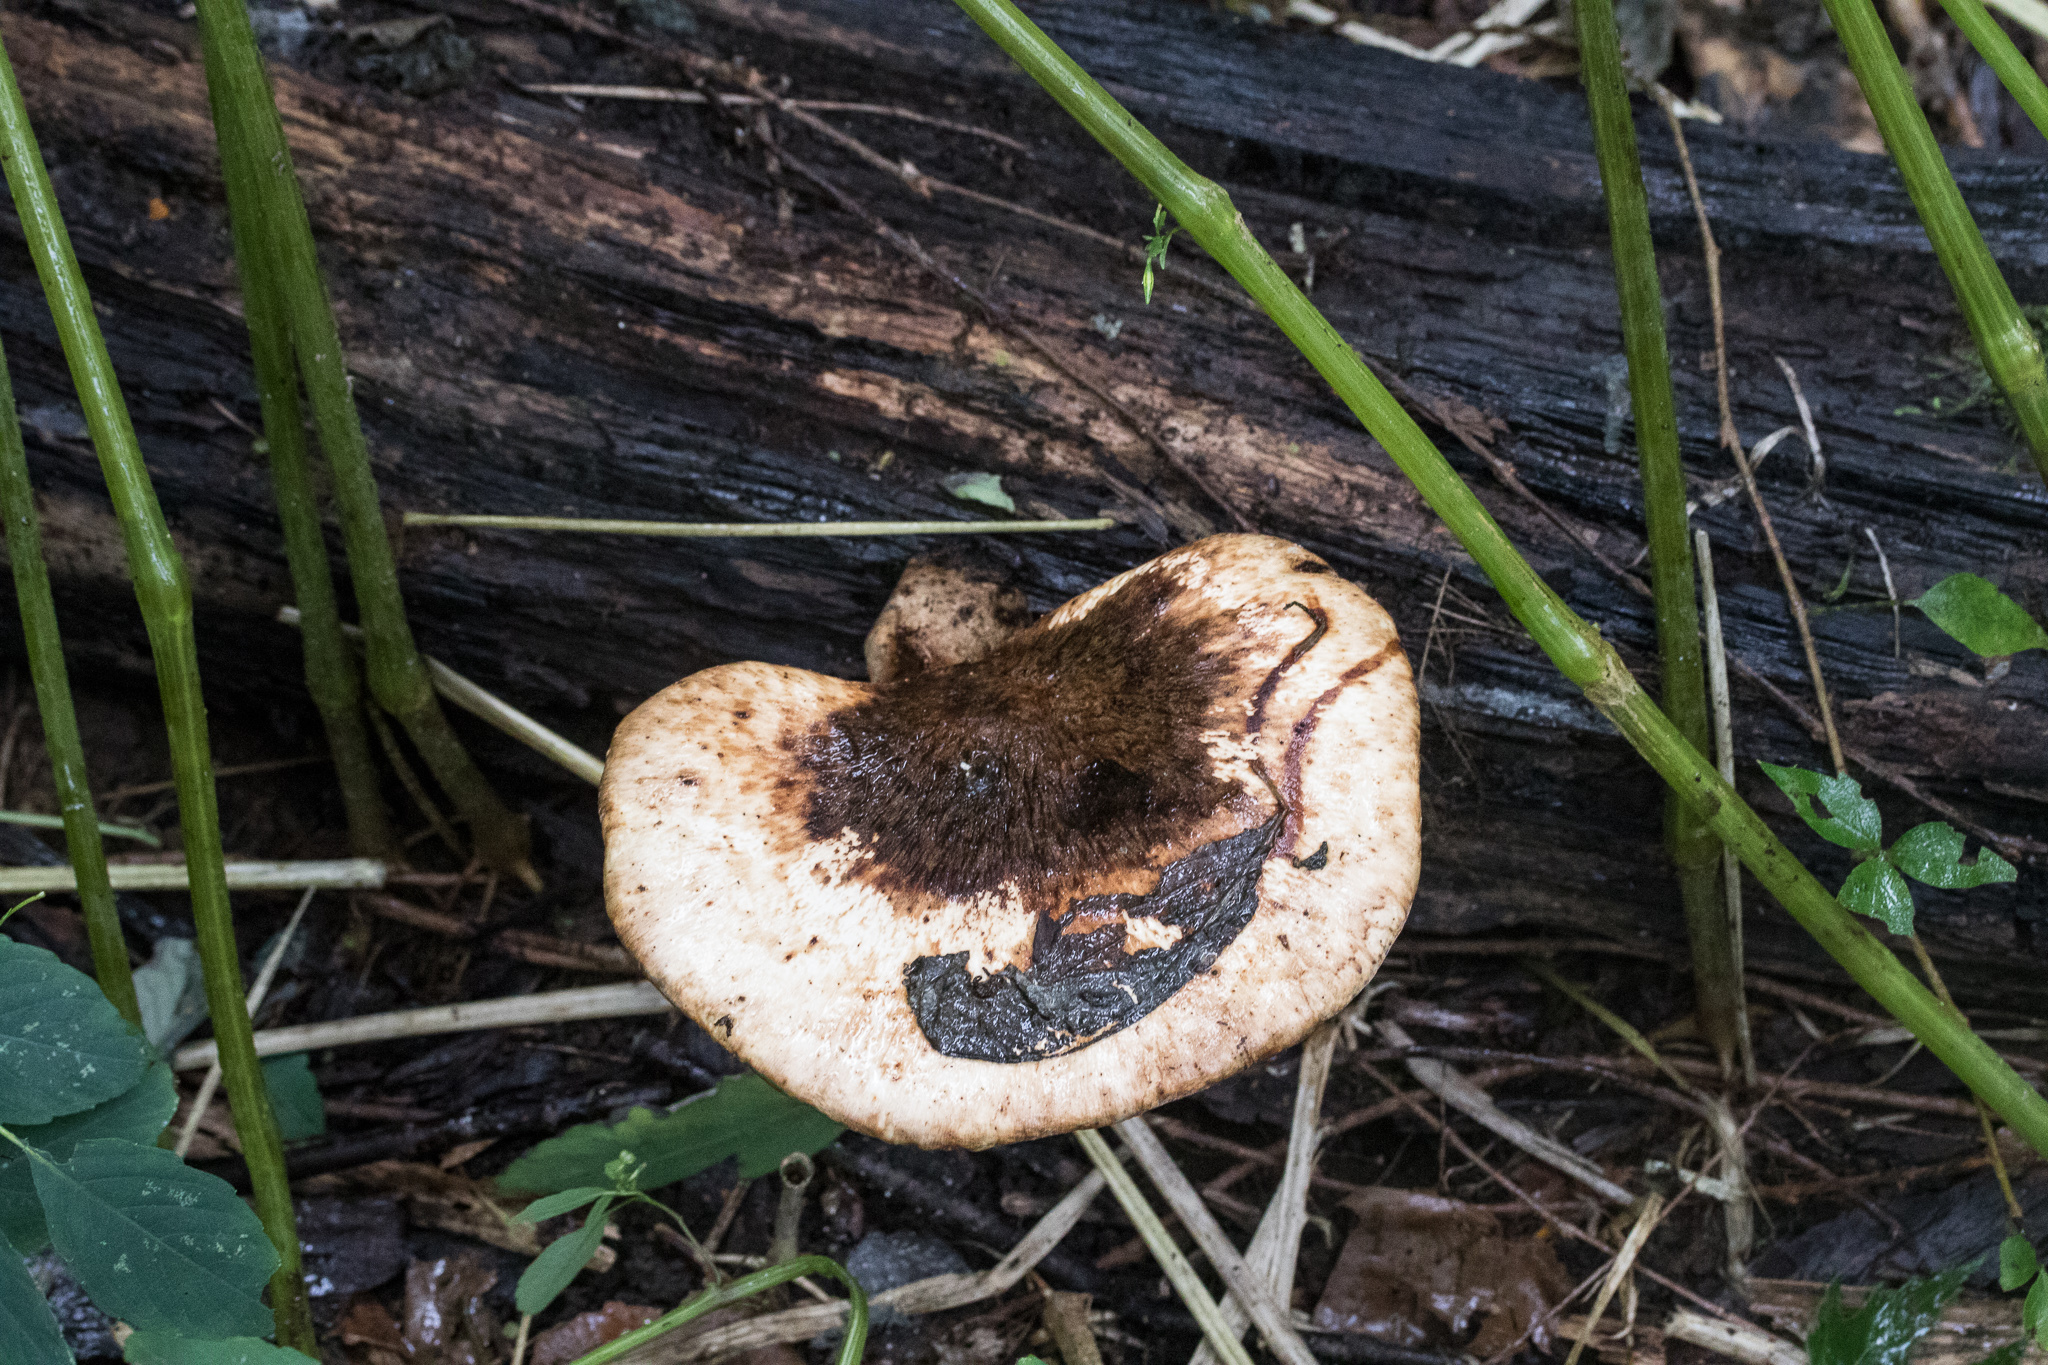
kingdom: Fungi
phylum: Basidiomycota
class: Agaricomycetes
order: Polyporales
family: Polyporaceae
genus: Cerioporus
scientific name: Cerioporus squamosus
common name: Dryad's saddle
